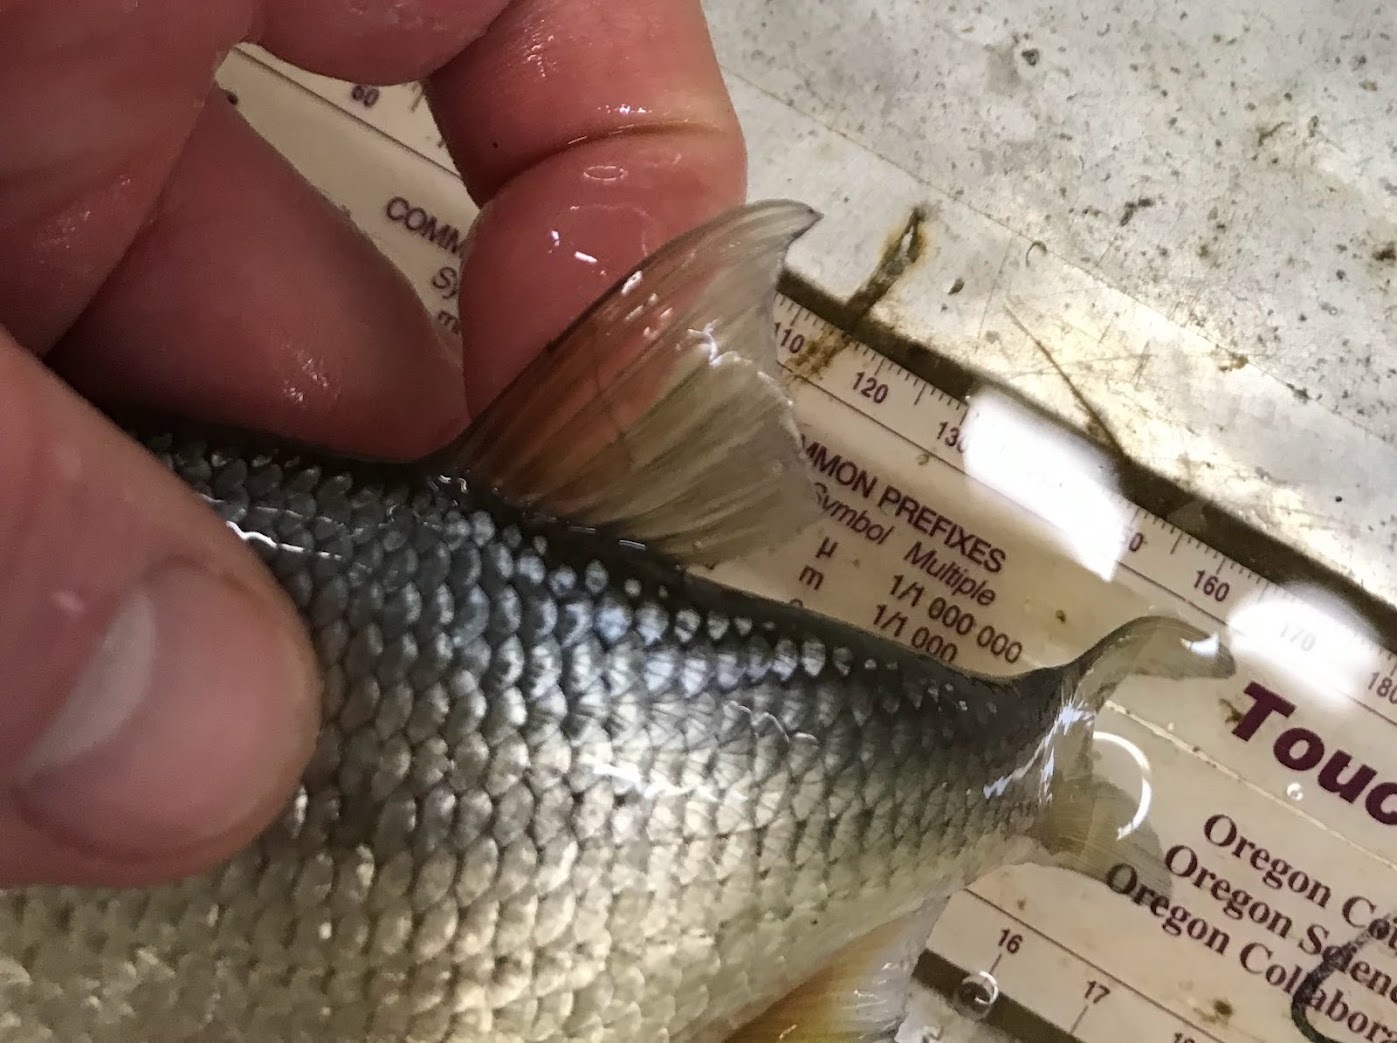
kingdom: Animalia
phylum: Chordata
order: Cypriniformes
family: Cyprinidae
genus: Notemigonus
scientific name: Notemigonus crysoleucas
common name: Golden shiner
